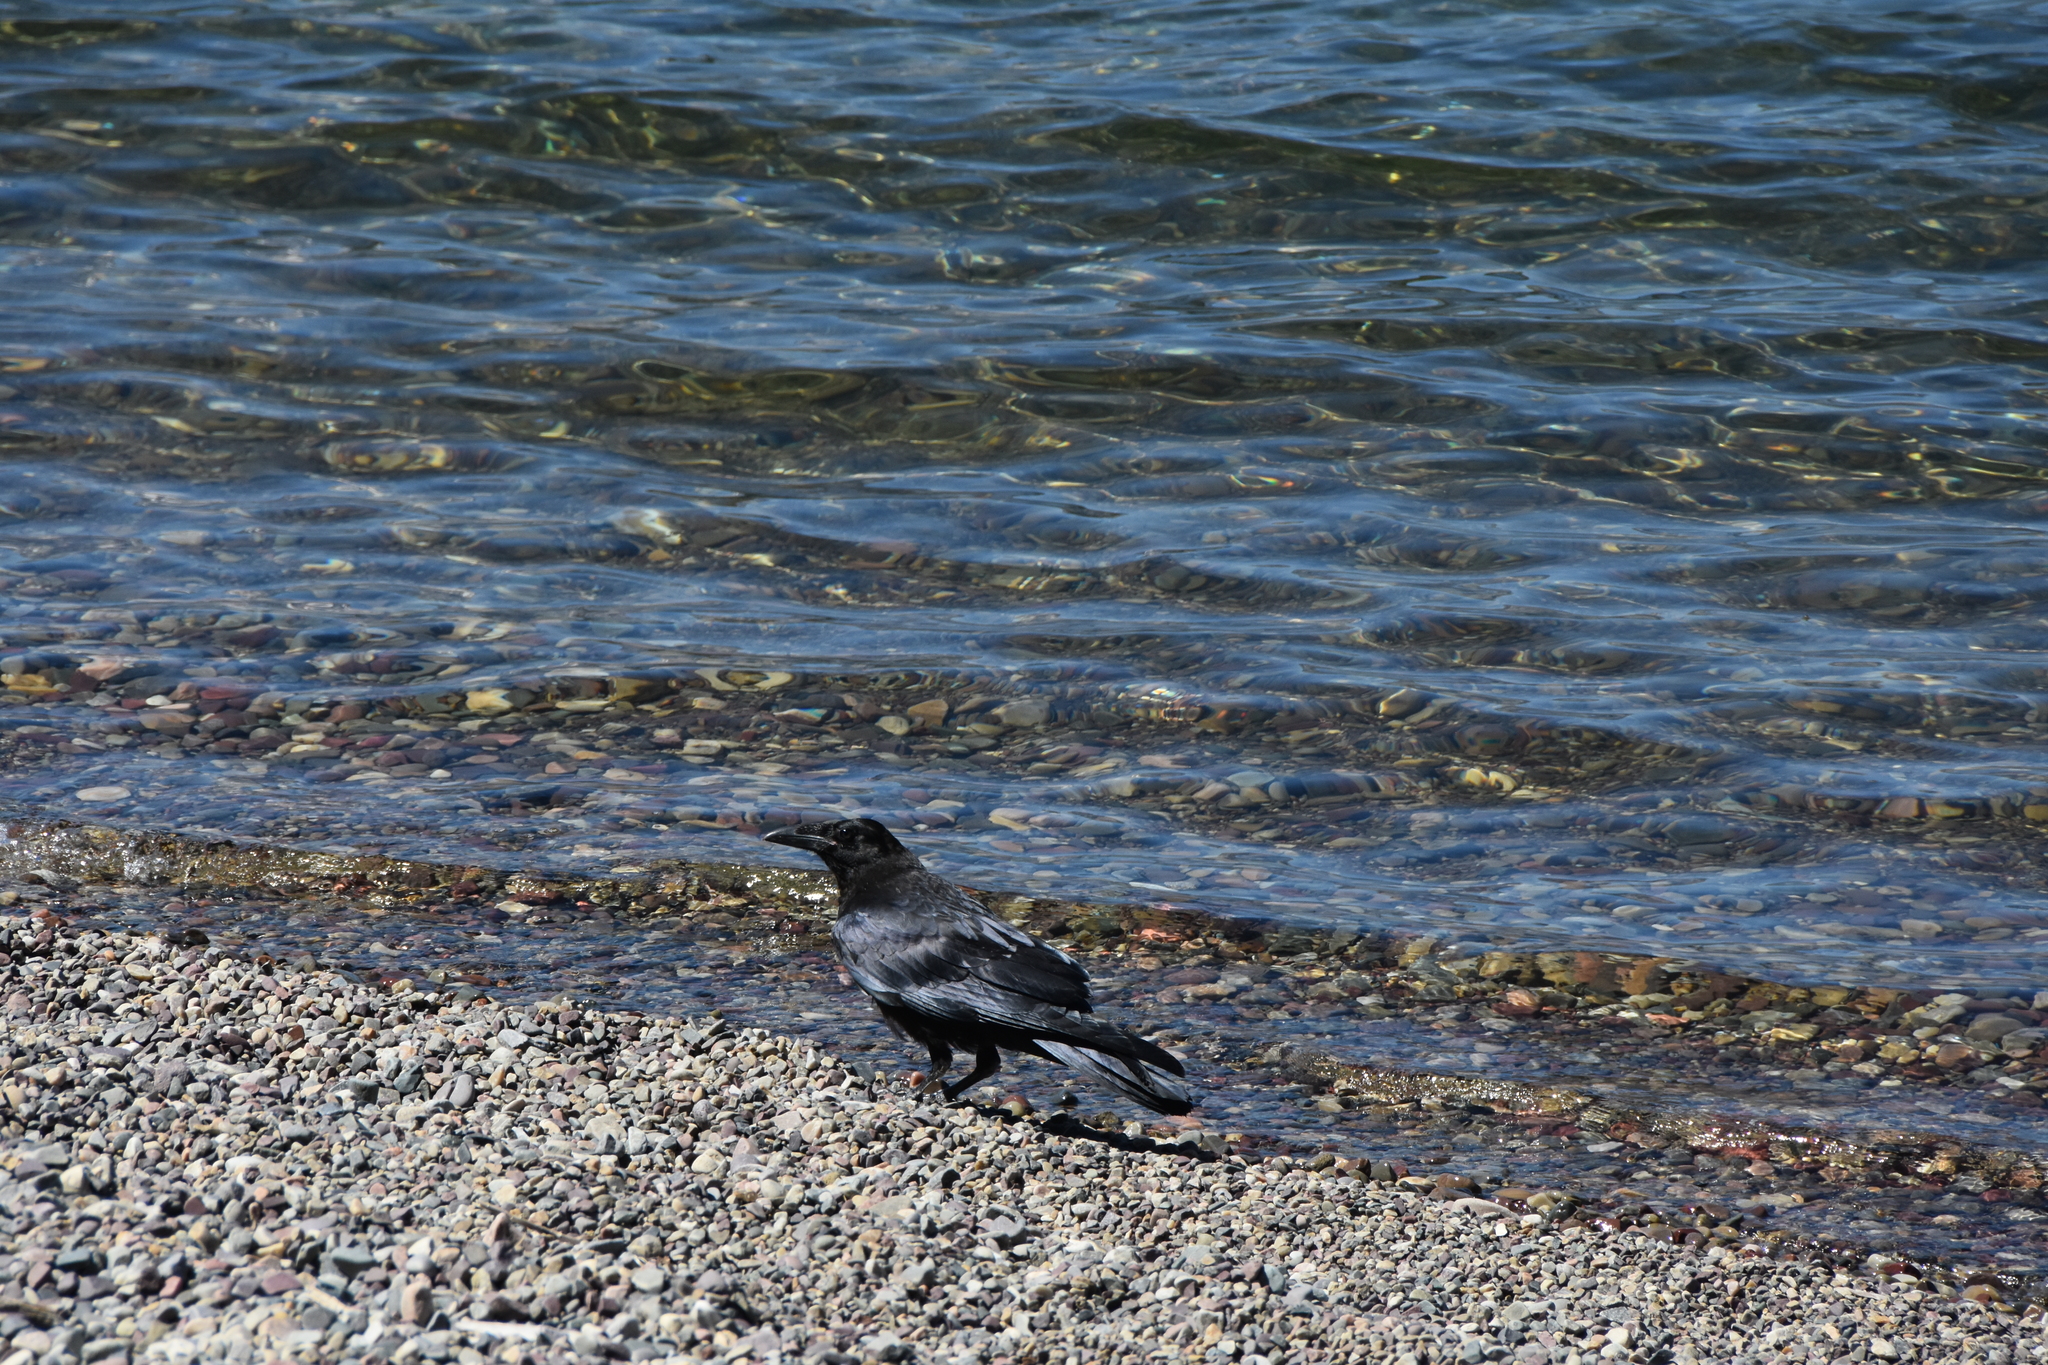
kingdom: Animalia
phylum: Chordata
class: Aves
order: Passeriformes
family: Corvidae
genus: Corvus
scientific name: Corvus corax
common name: Common raven
